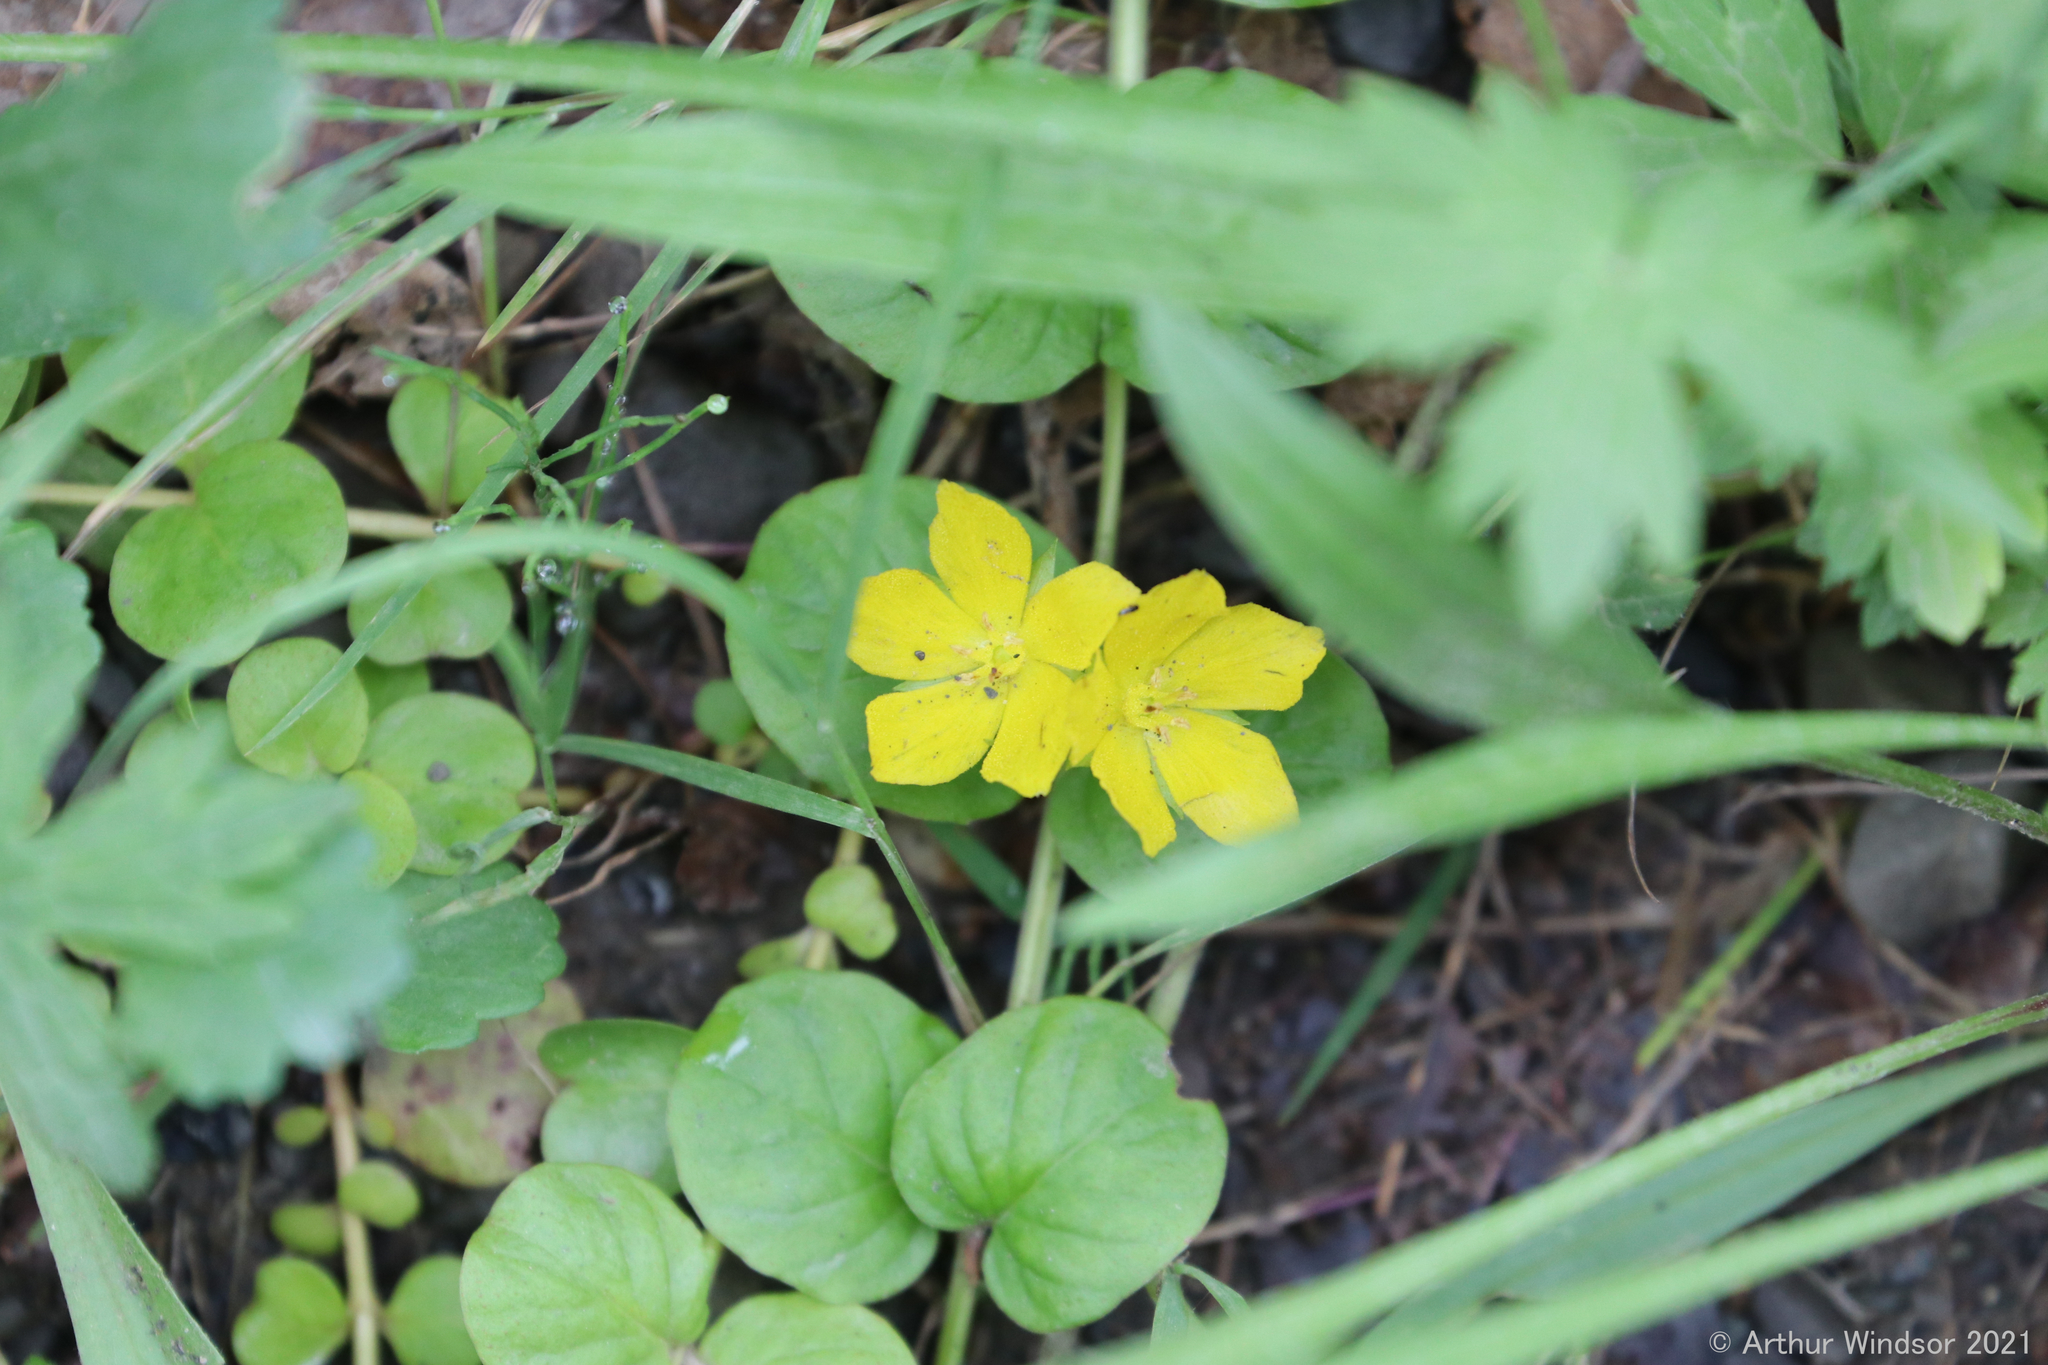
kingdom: Plantae
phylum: Tracheophyta
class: Magnoliopsida
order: Ericales
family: Primulaceae
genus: Lysimachia
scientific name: Lysimachia nummularia
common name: Moneywort
